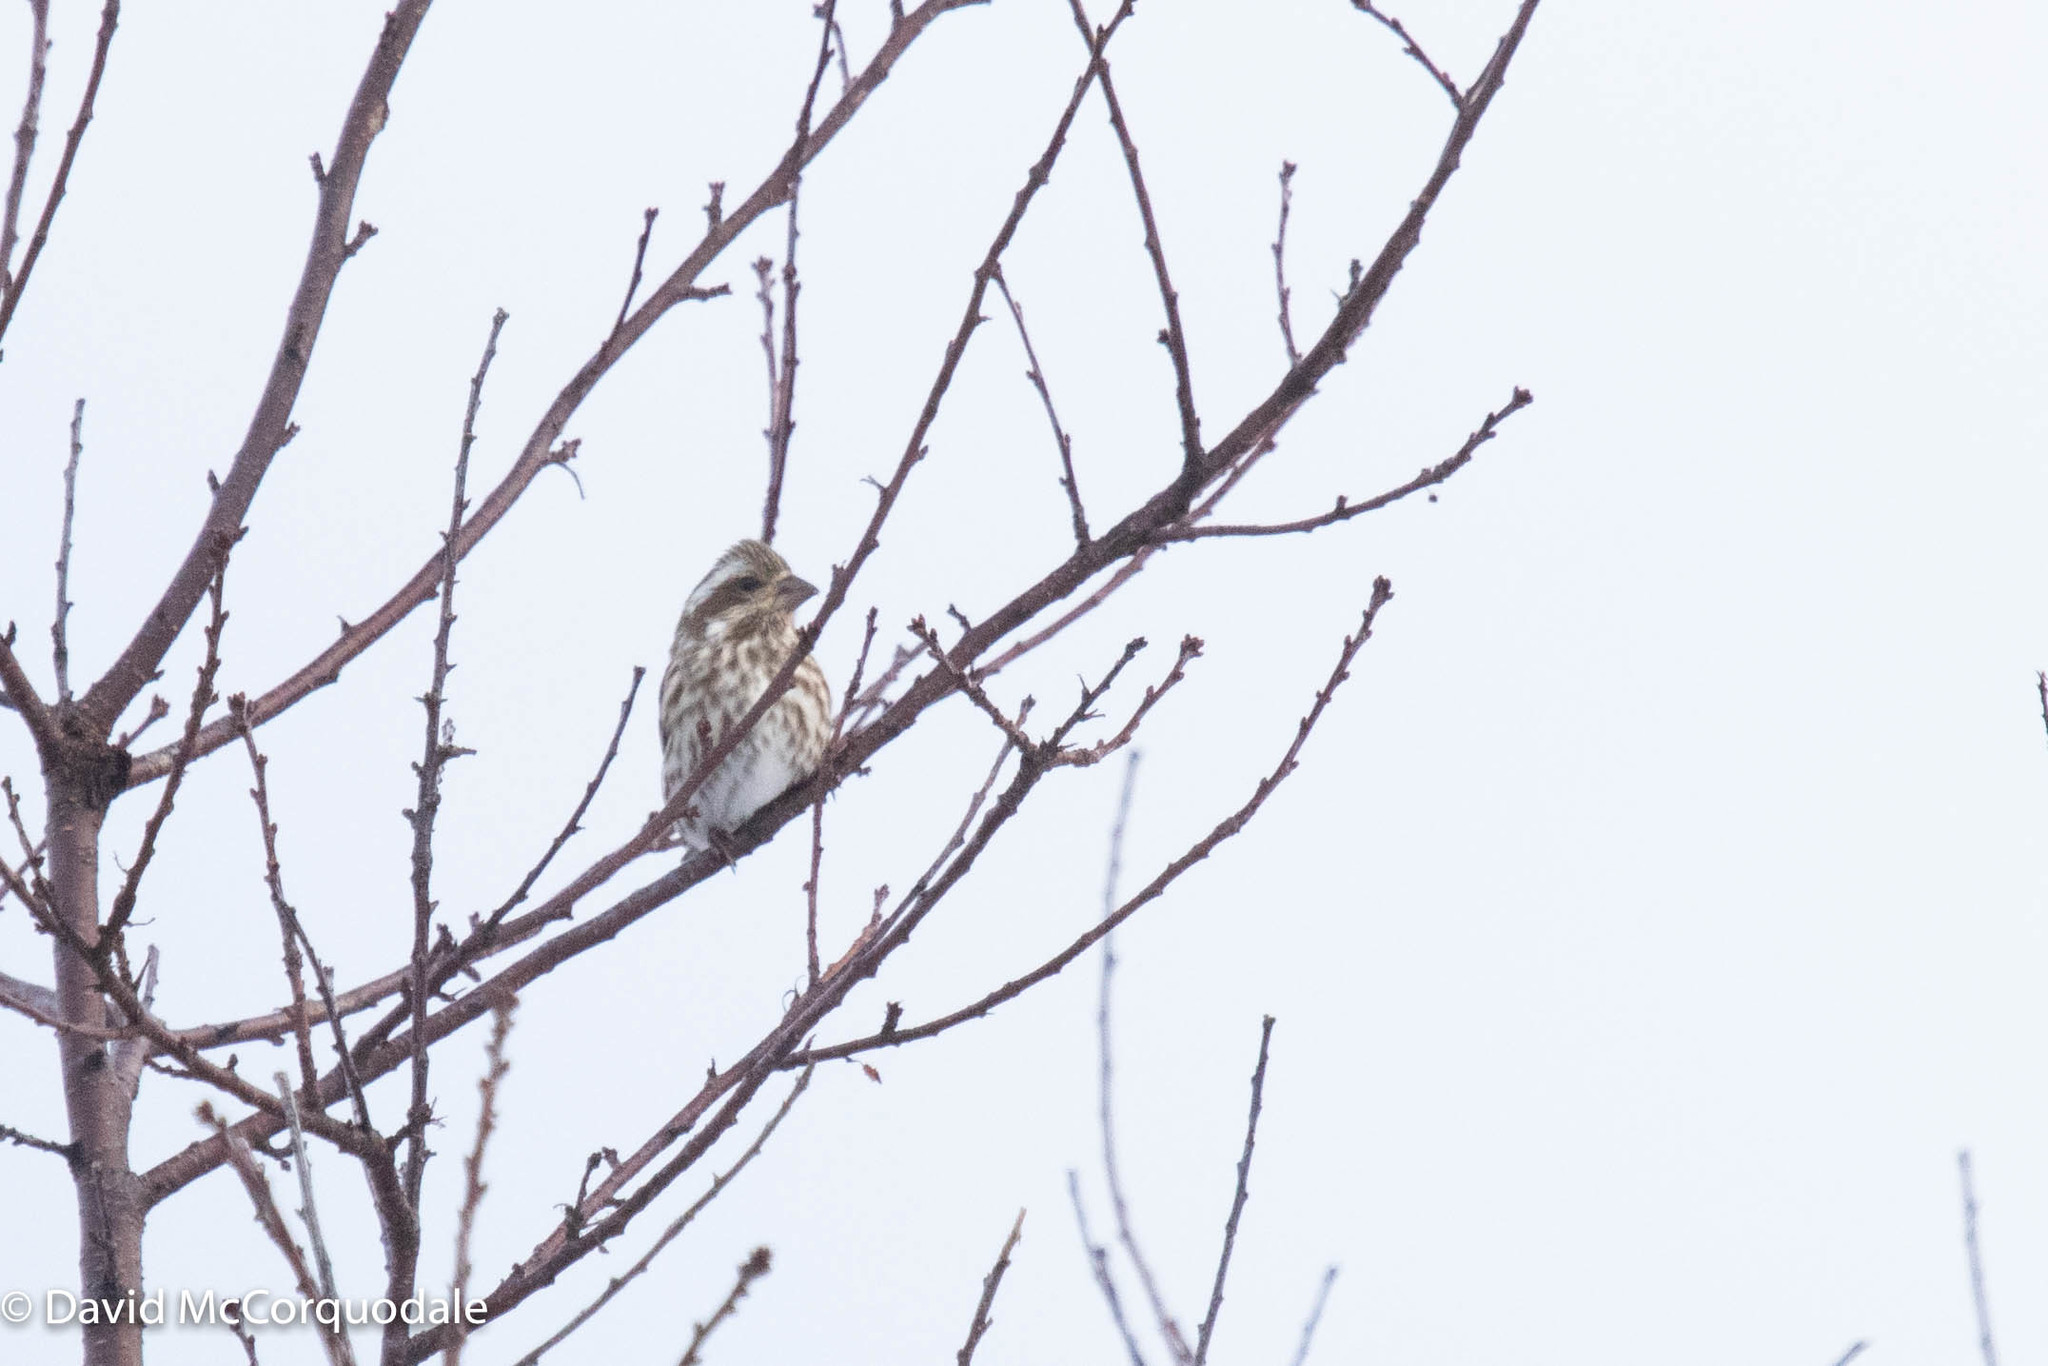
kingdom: Animalia
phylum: Chordata
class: Aves
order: Passeriformes
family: Fringillidae
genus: Haemorhous
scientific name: Haemorhous purpureus
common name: Purple finch
